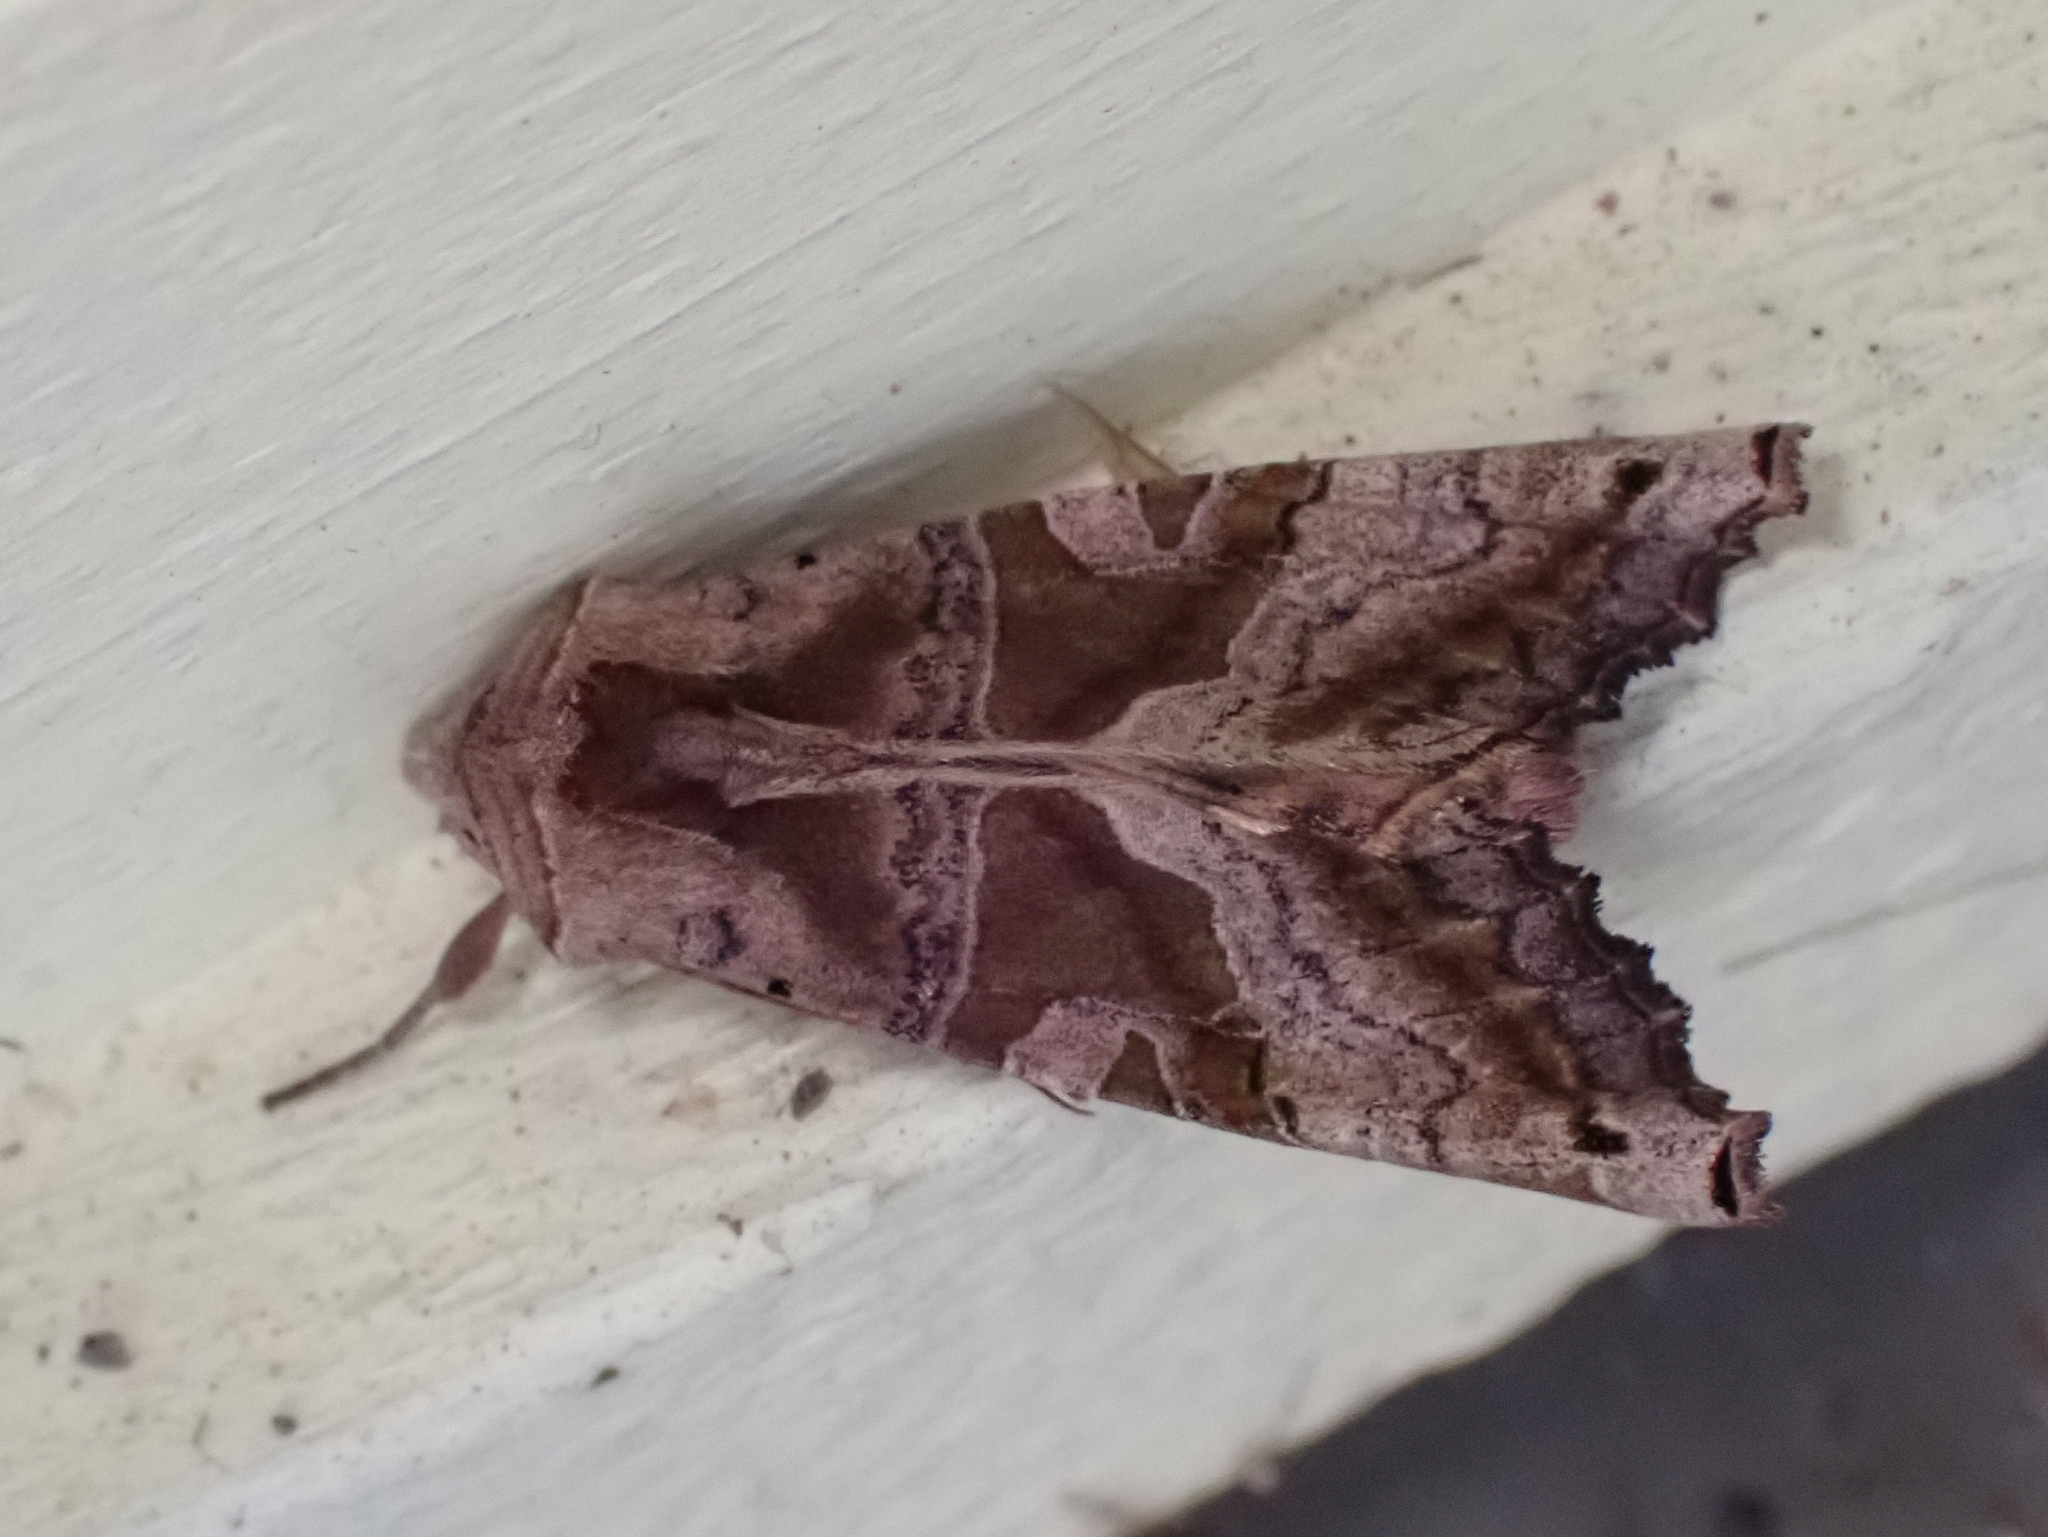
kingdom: Animalia
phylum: Arthropoda
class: Insecta
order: Lepidoptera
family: Noctuidae
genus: Phlogophora
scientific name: Phlogophora periculosa
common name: Brown angle shades
